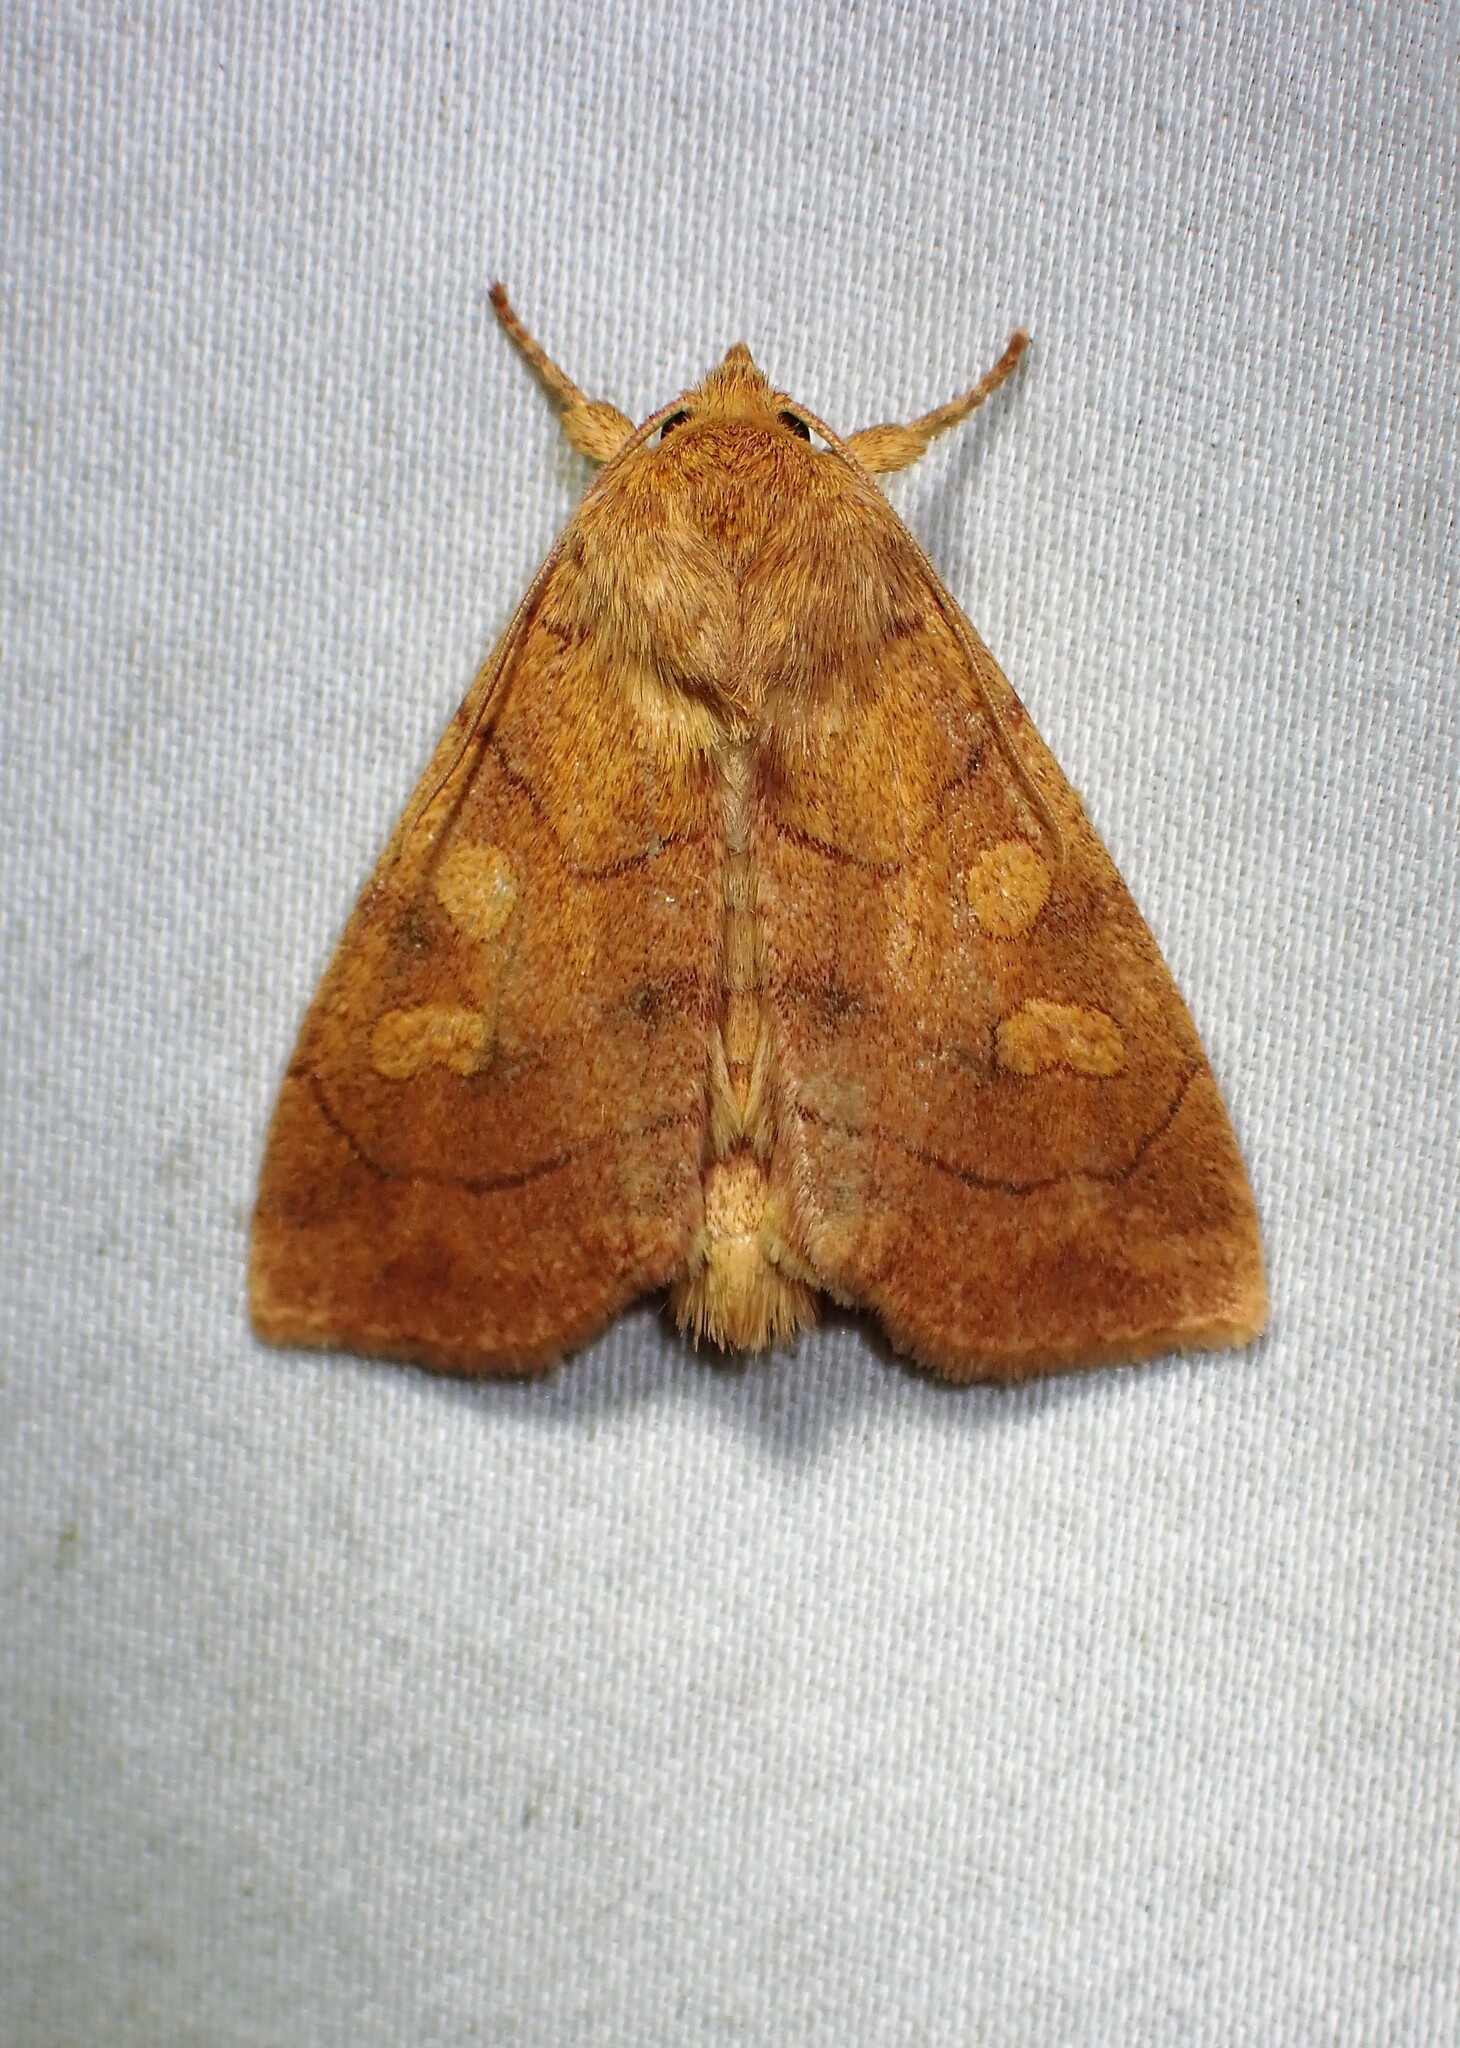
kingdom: Animalia
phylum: Arthropoda
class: Insecta
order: Lepidoptera
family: Noctuidae
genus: Enargia
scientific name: Enargia decolor
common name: Aspen twoleaf tier moth
